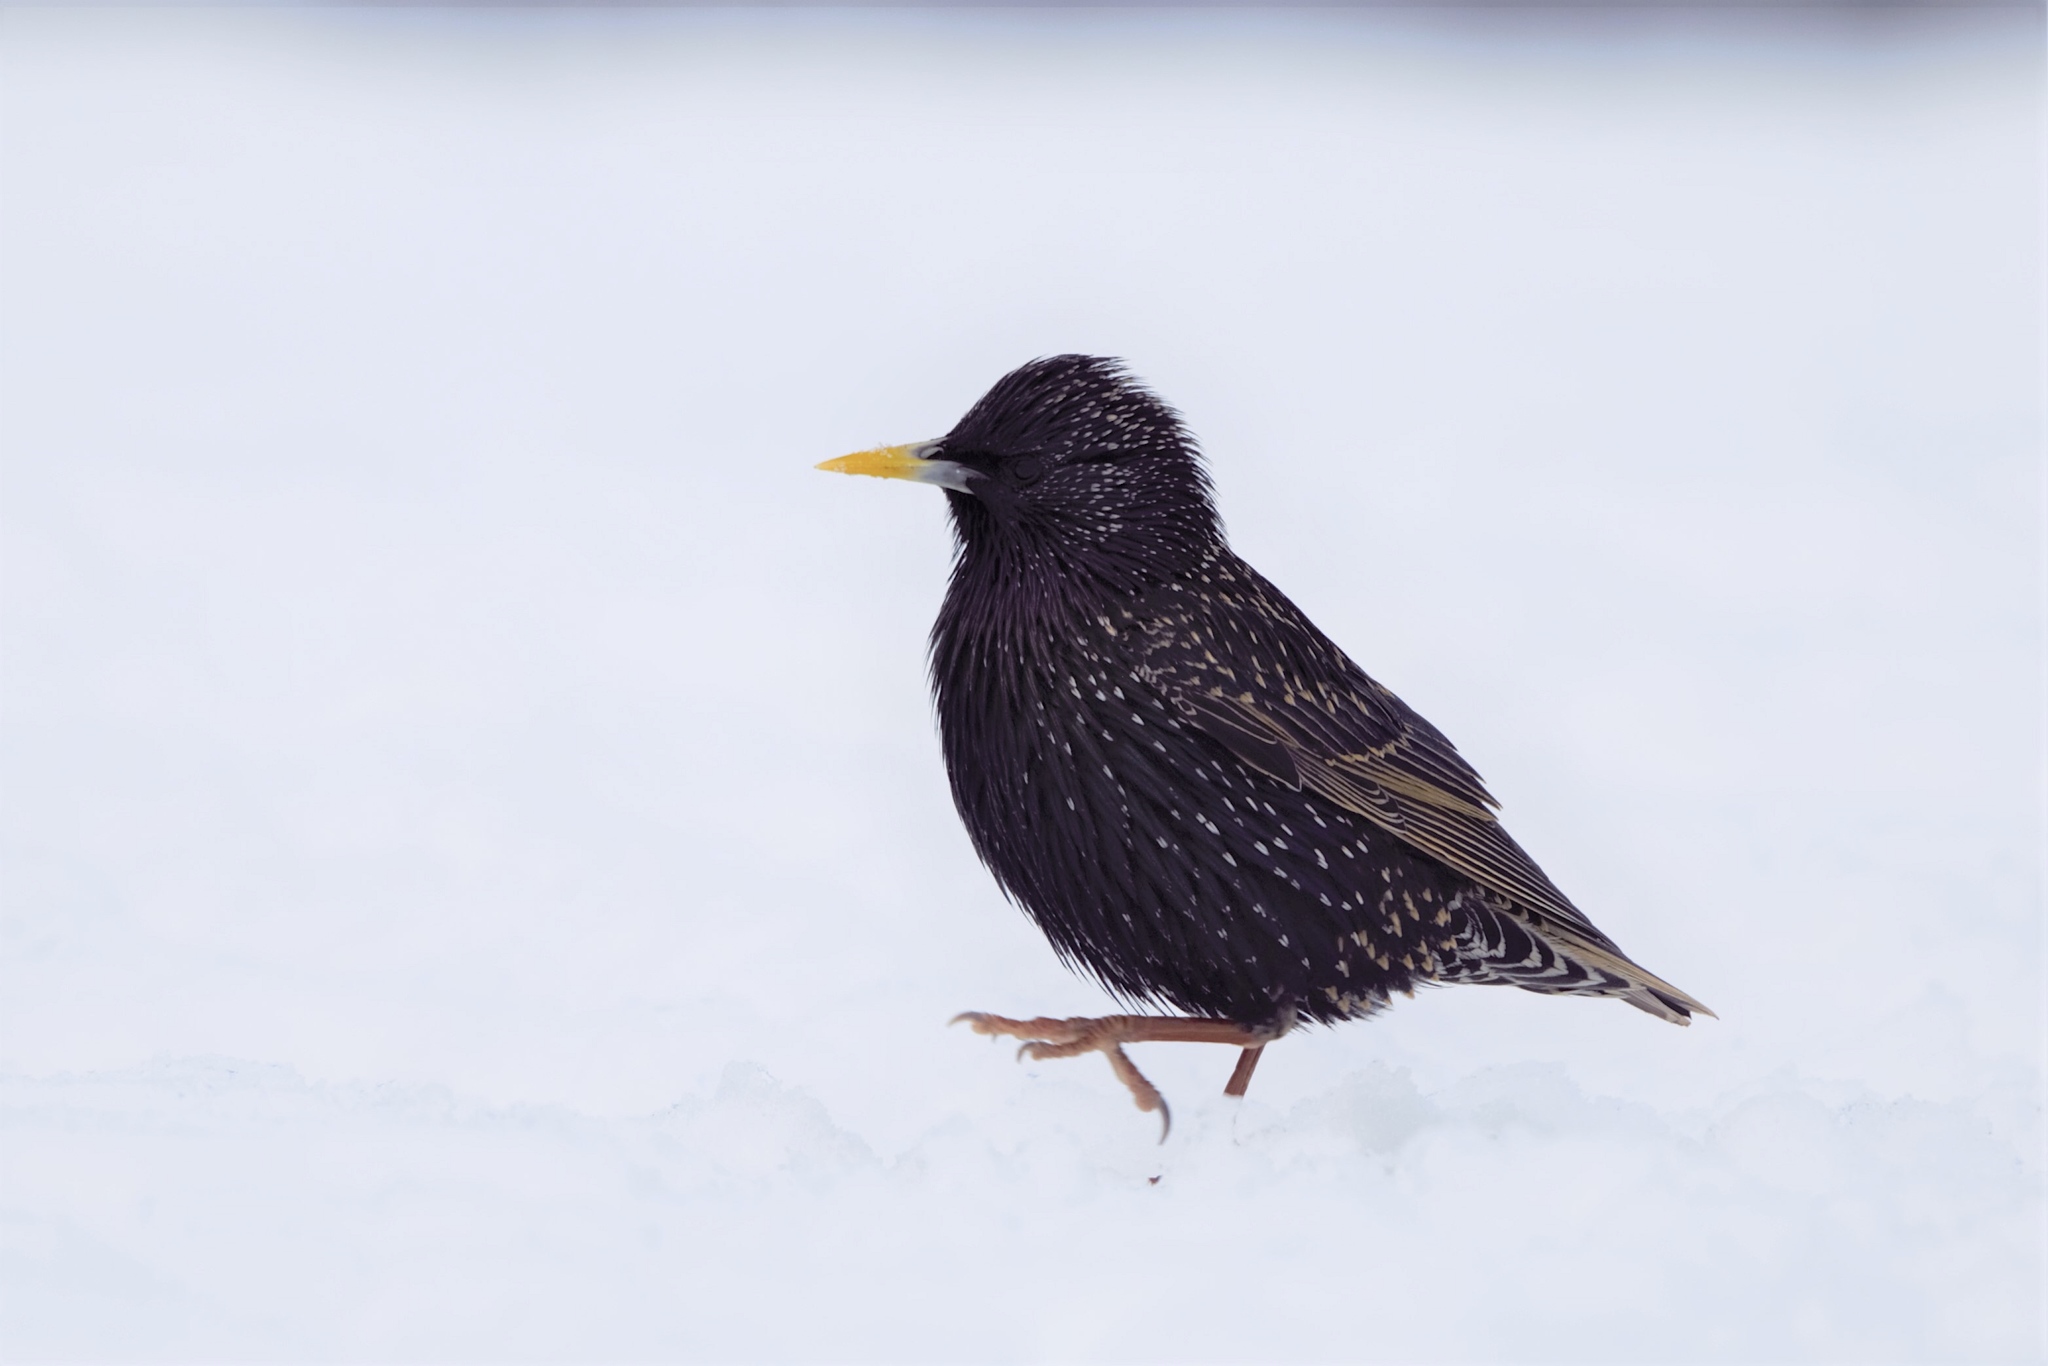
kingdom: Animalia
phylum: Chordata
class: Aves
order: Passeriformes
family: Sturnidae
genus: Sturnus
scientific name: Sturnus vulgaris
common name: Common starling
